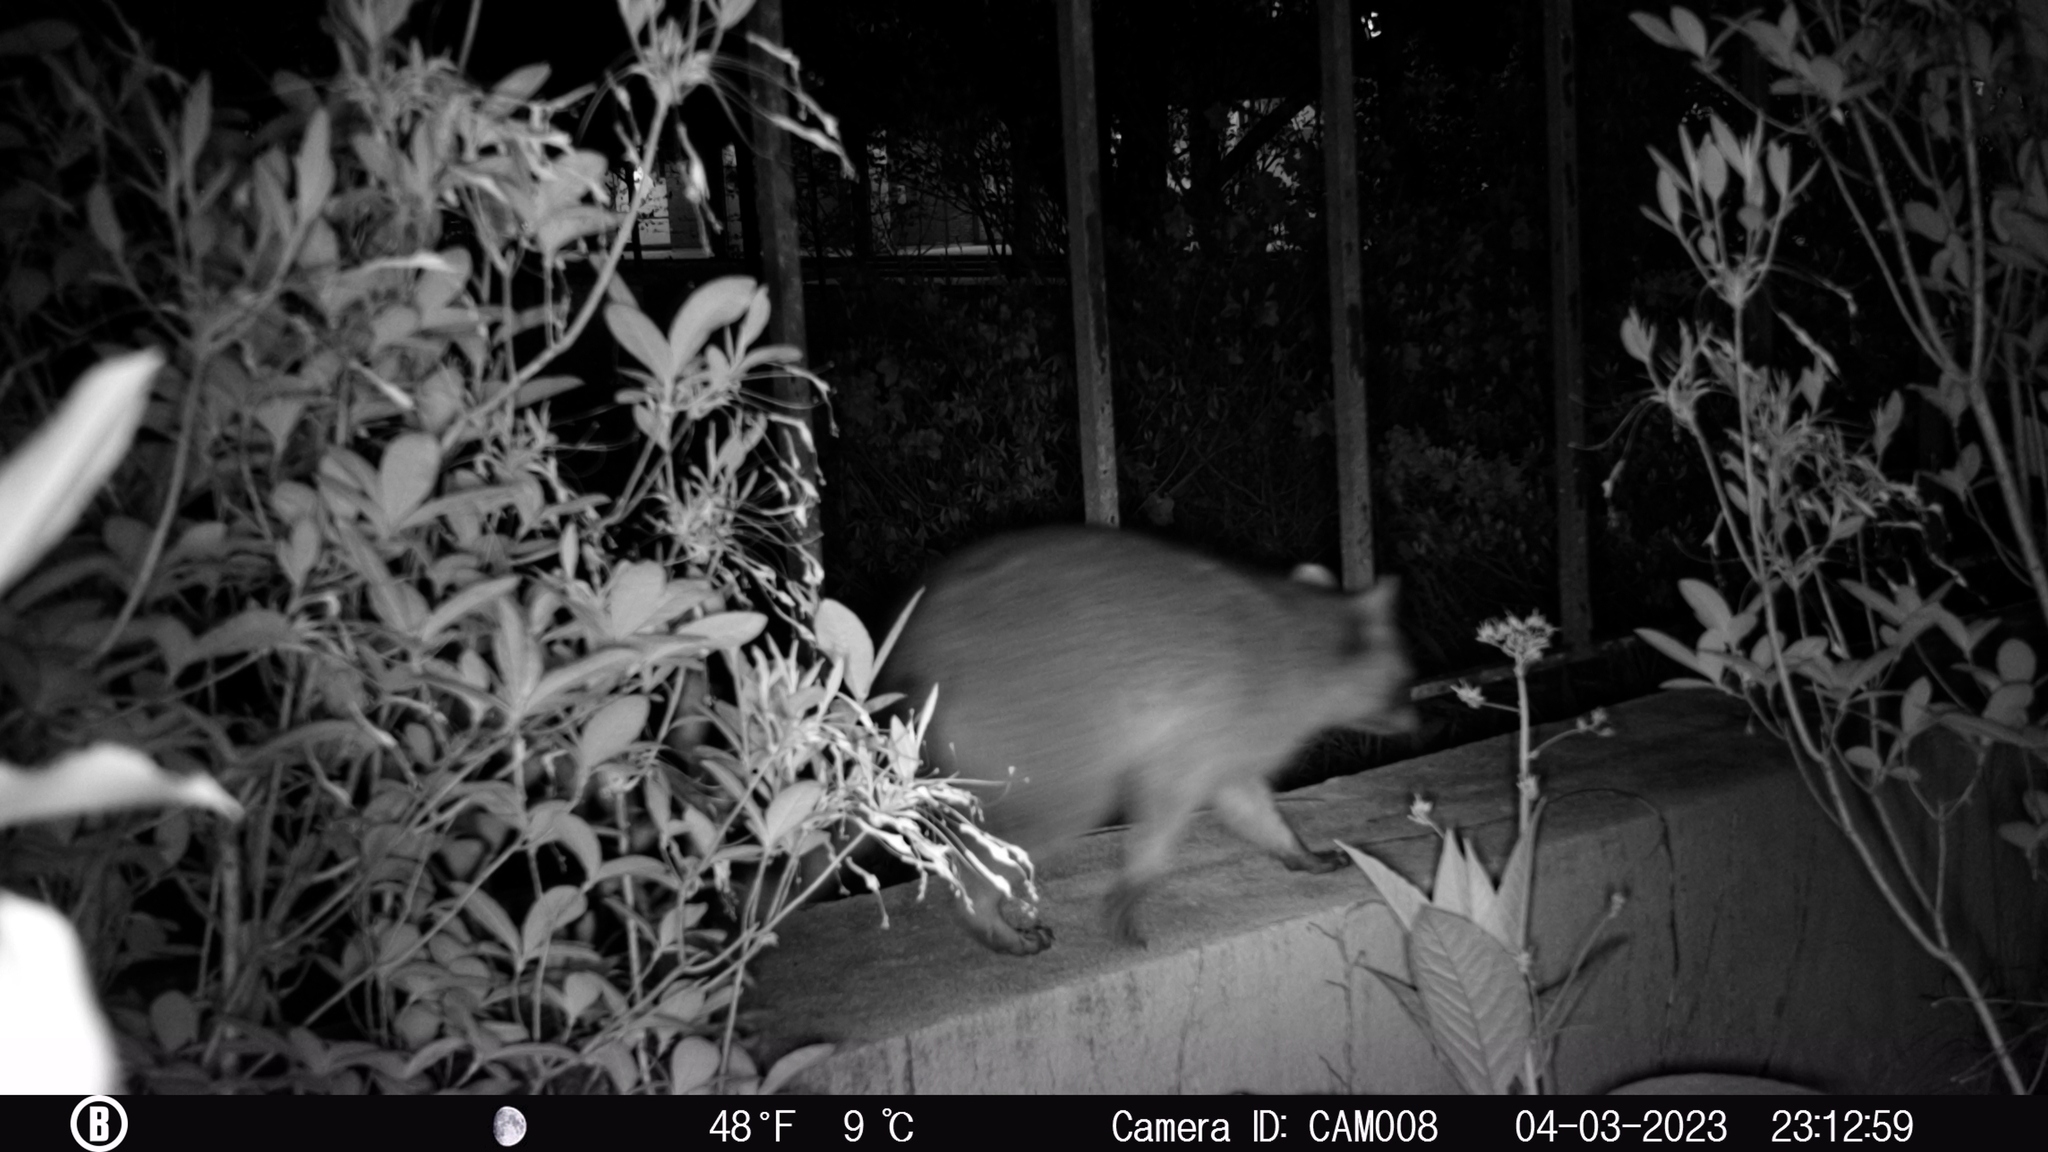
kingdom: Animalia
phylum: Chordata
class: Mammalia
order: Carnivora
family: Procyonidae
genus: Procyon
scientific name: Procyon lotor
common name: Raccoon
